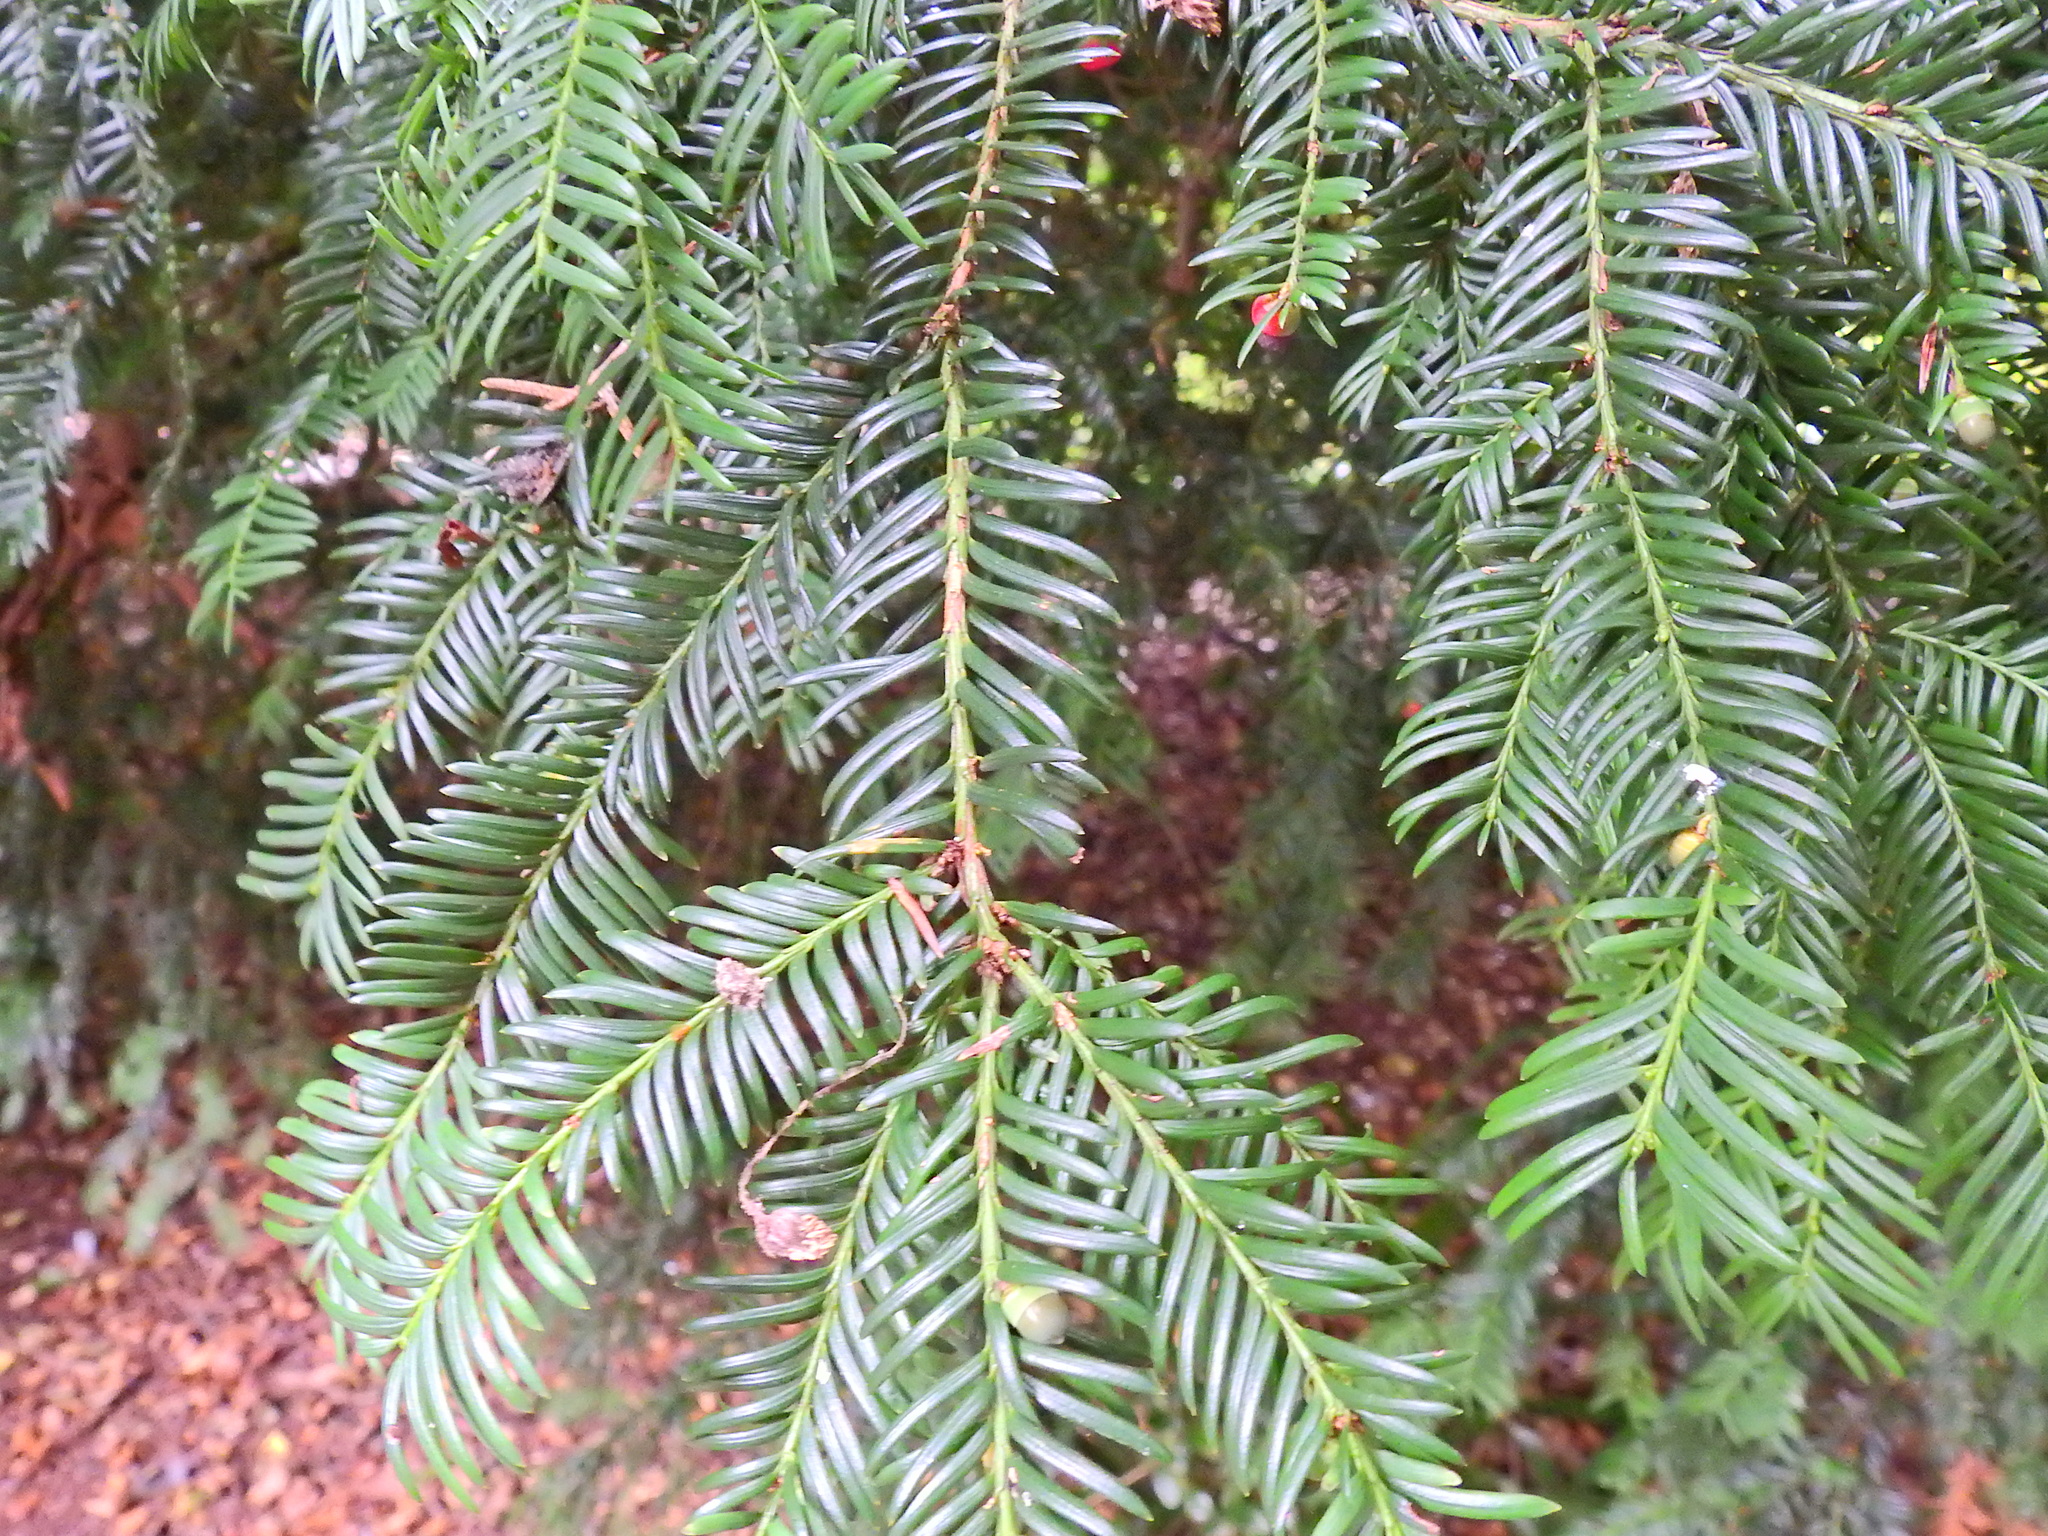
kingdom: Plantae
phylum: Tracheophyta
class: Pinopsida
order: Pinales
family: Taxaceae
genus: Taxus
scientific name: Taxus baccata
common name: Yew
